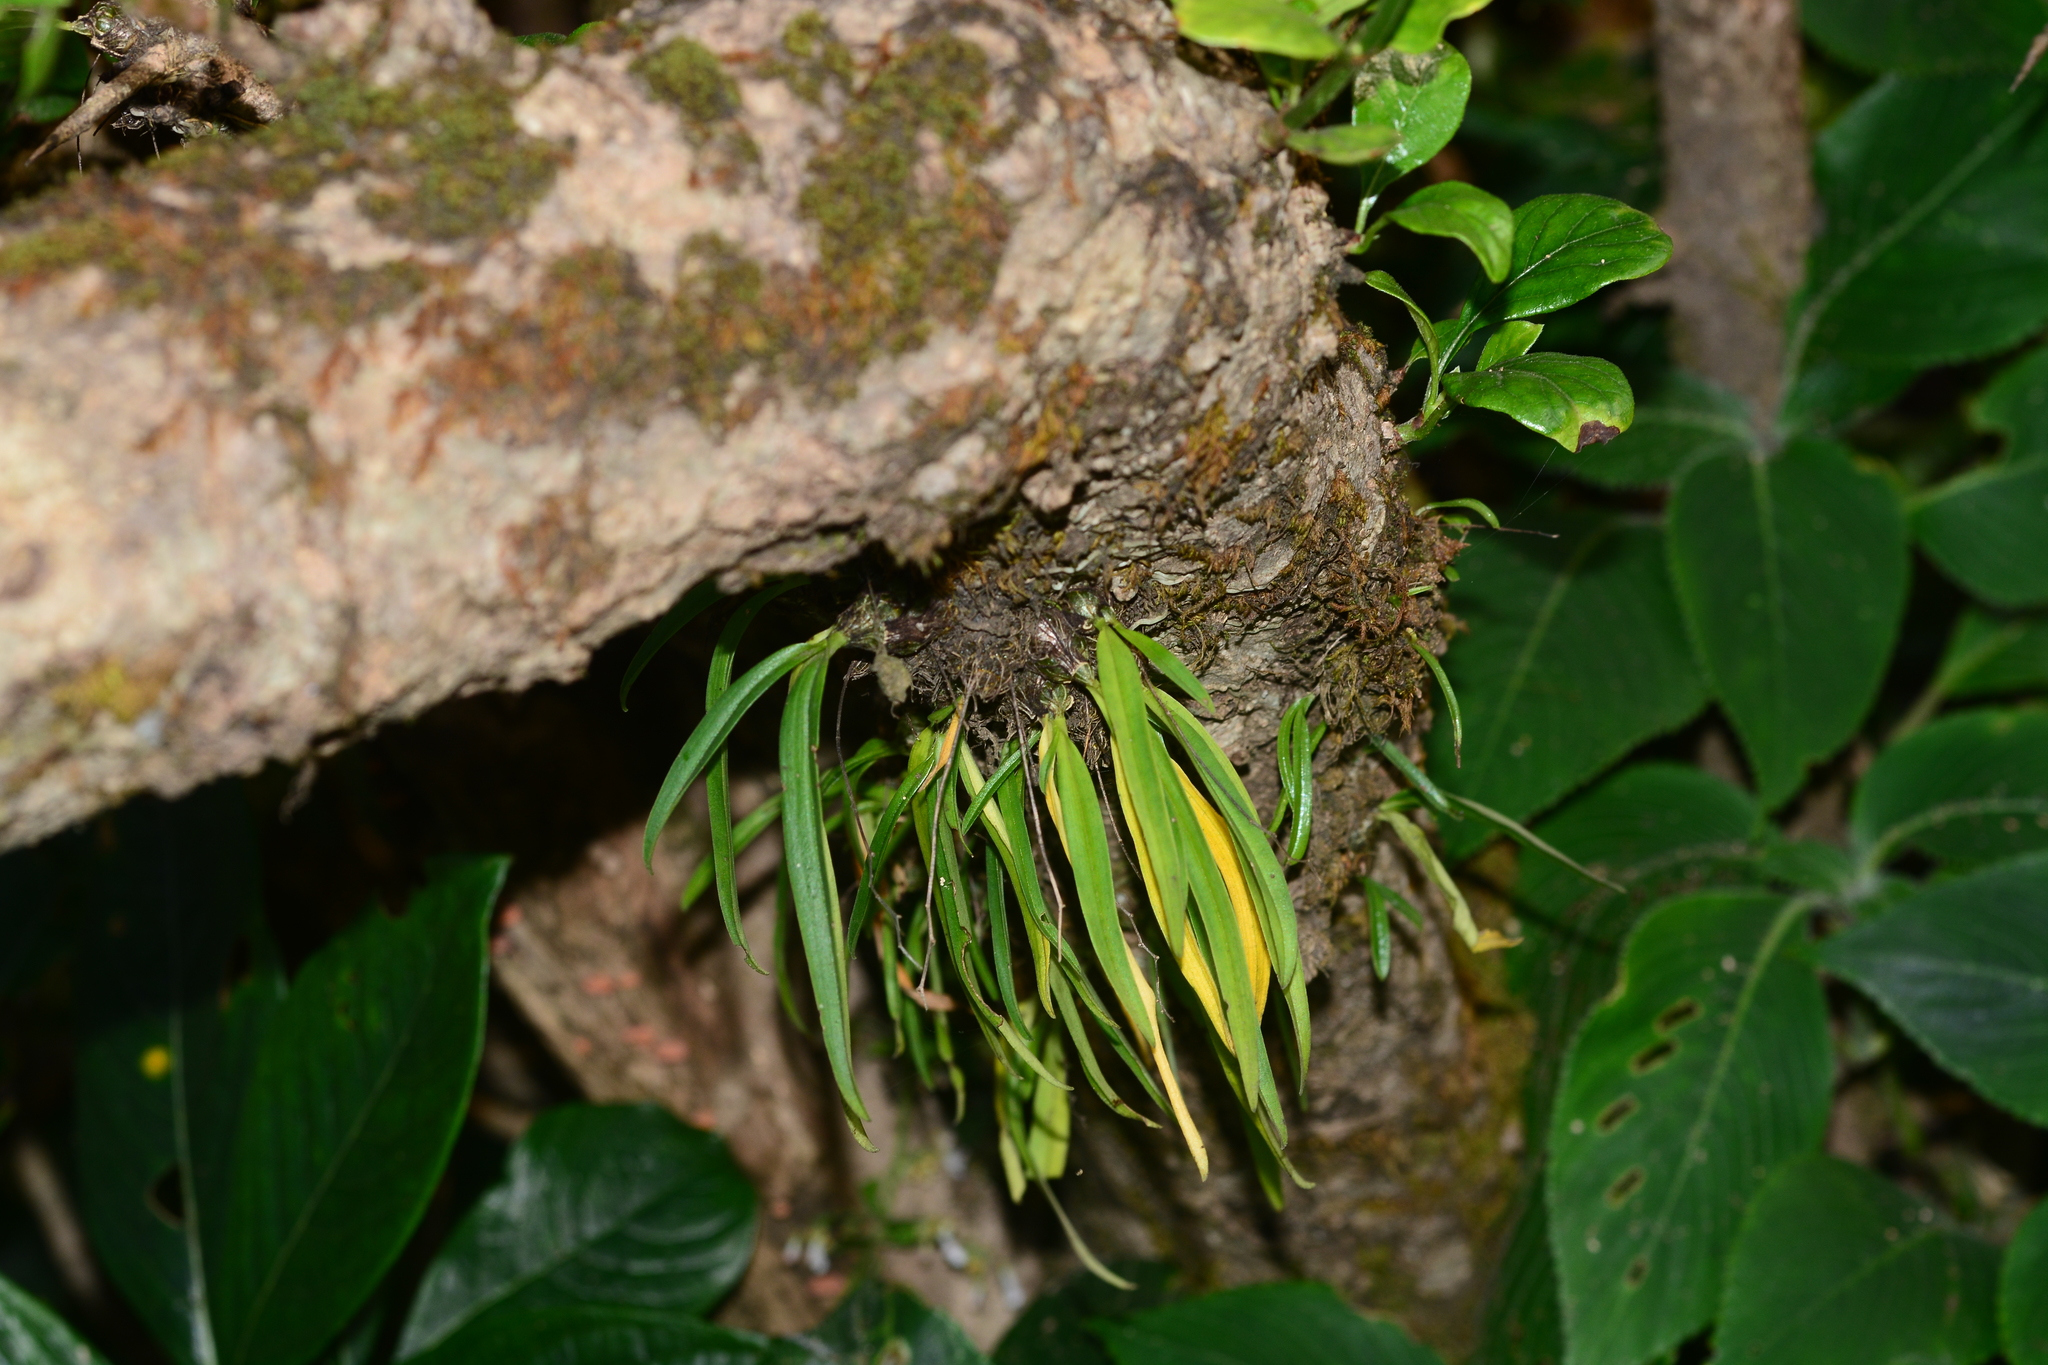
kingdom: Plantae
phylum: Tracheophyta
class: Liliopsida
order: Asparagales
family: Orchidaceae
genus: Dendrobium
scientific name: Dendrobium turbinatum
